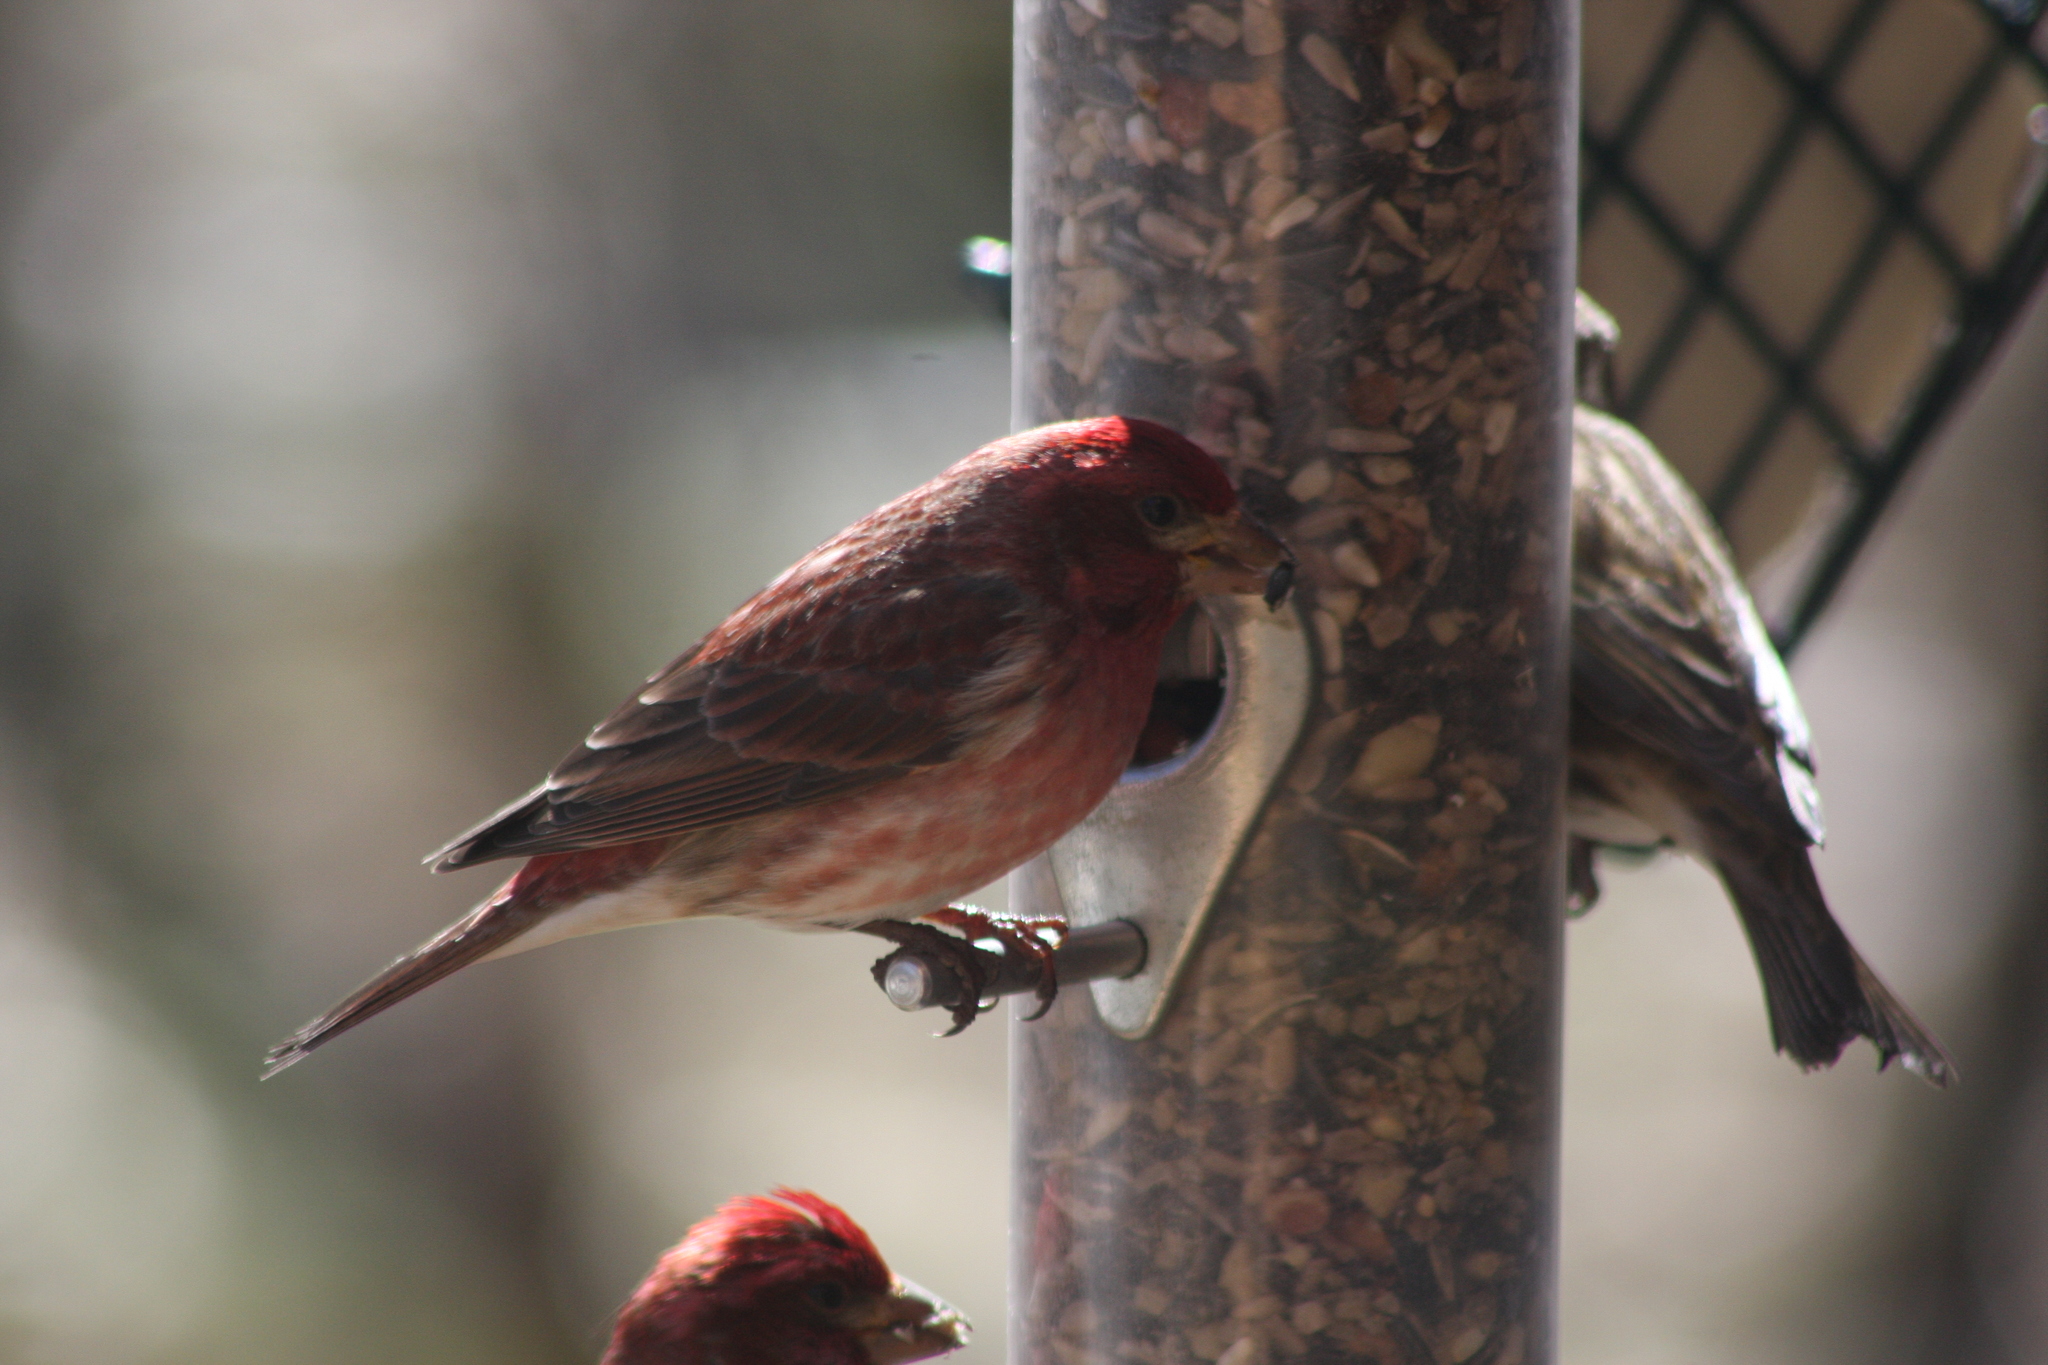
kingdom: Animalia
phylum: Chordata
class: Aves
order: Passeriformes
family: Fringillidae
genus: Haemorhous
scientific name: Haemorhous purpureus
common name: Purple finch
